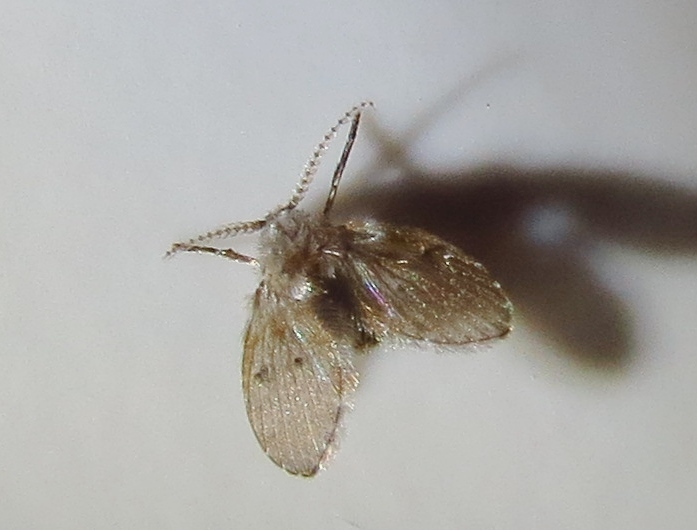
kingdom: Animalia
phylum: Arthropoda
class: Insecta
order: Diptera
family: Psychodidae
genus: Clogmia
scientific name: Clogmia albipunctatus
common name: White-spotted moth fly
